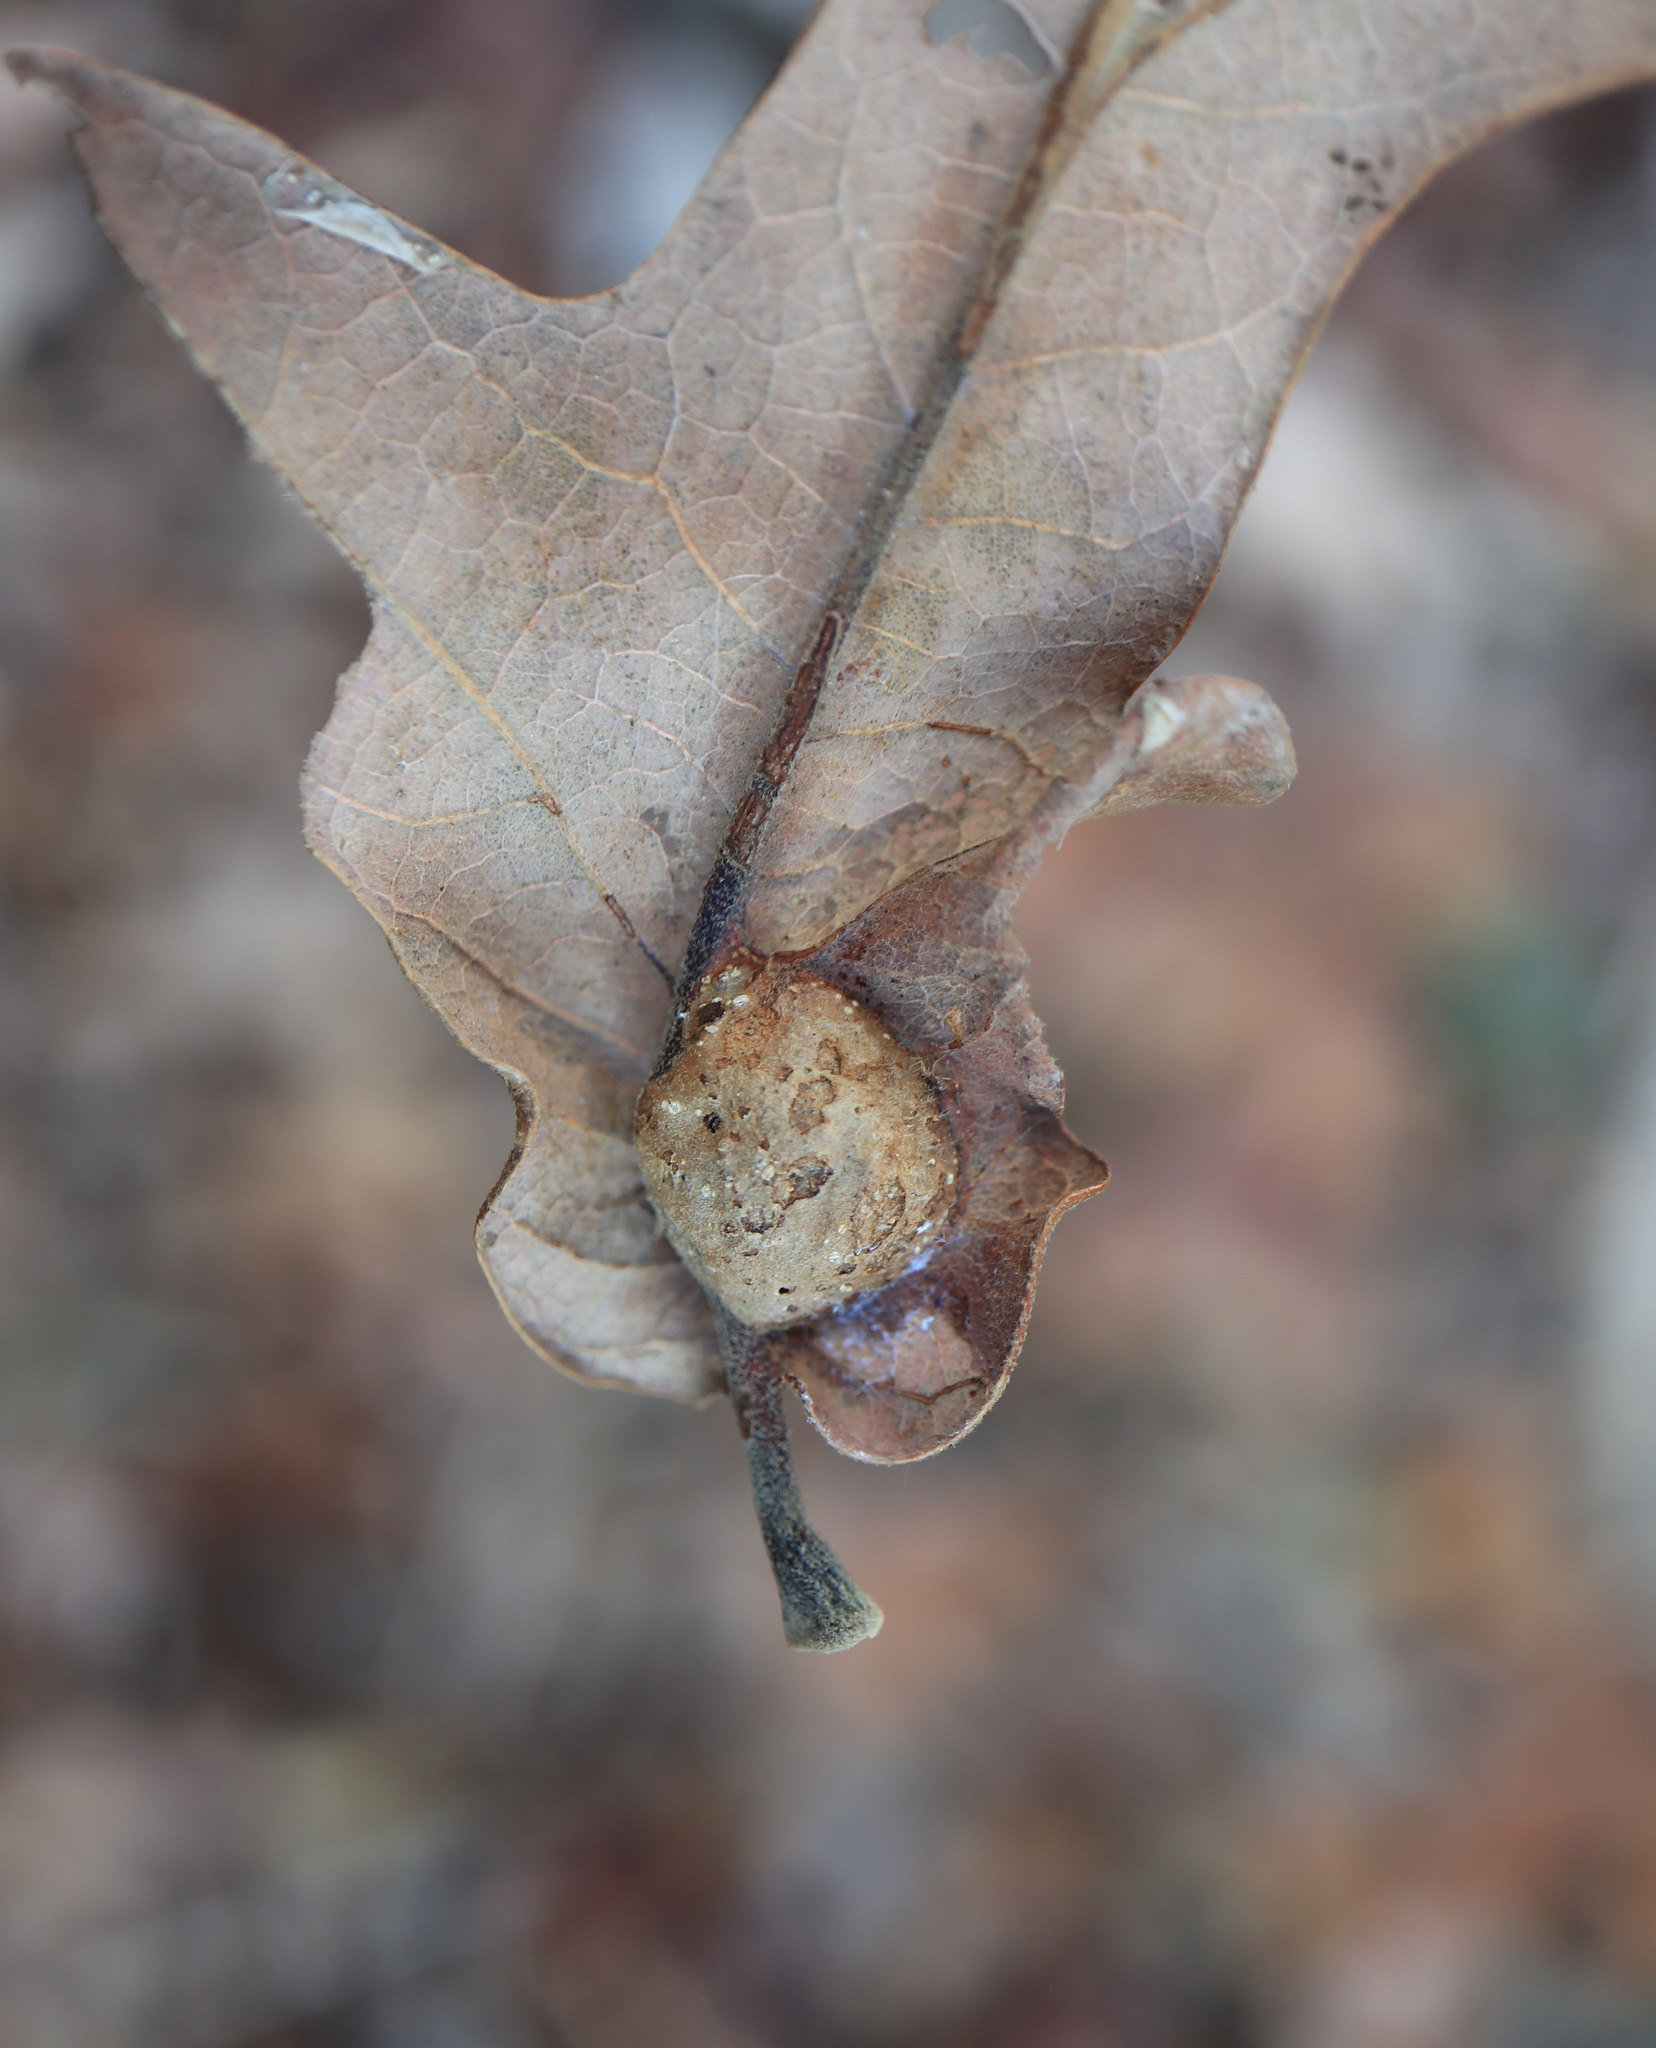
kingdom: Animalia
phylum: Arthropoda
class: Insecta
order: Hymenoptera
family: Cynipidae
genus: Andricus
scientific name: Andricus
